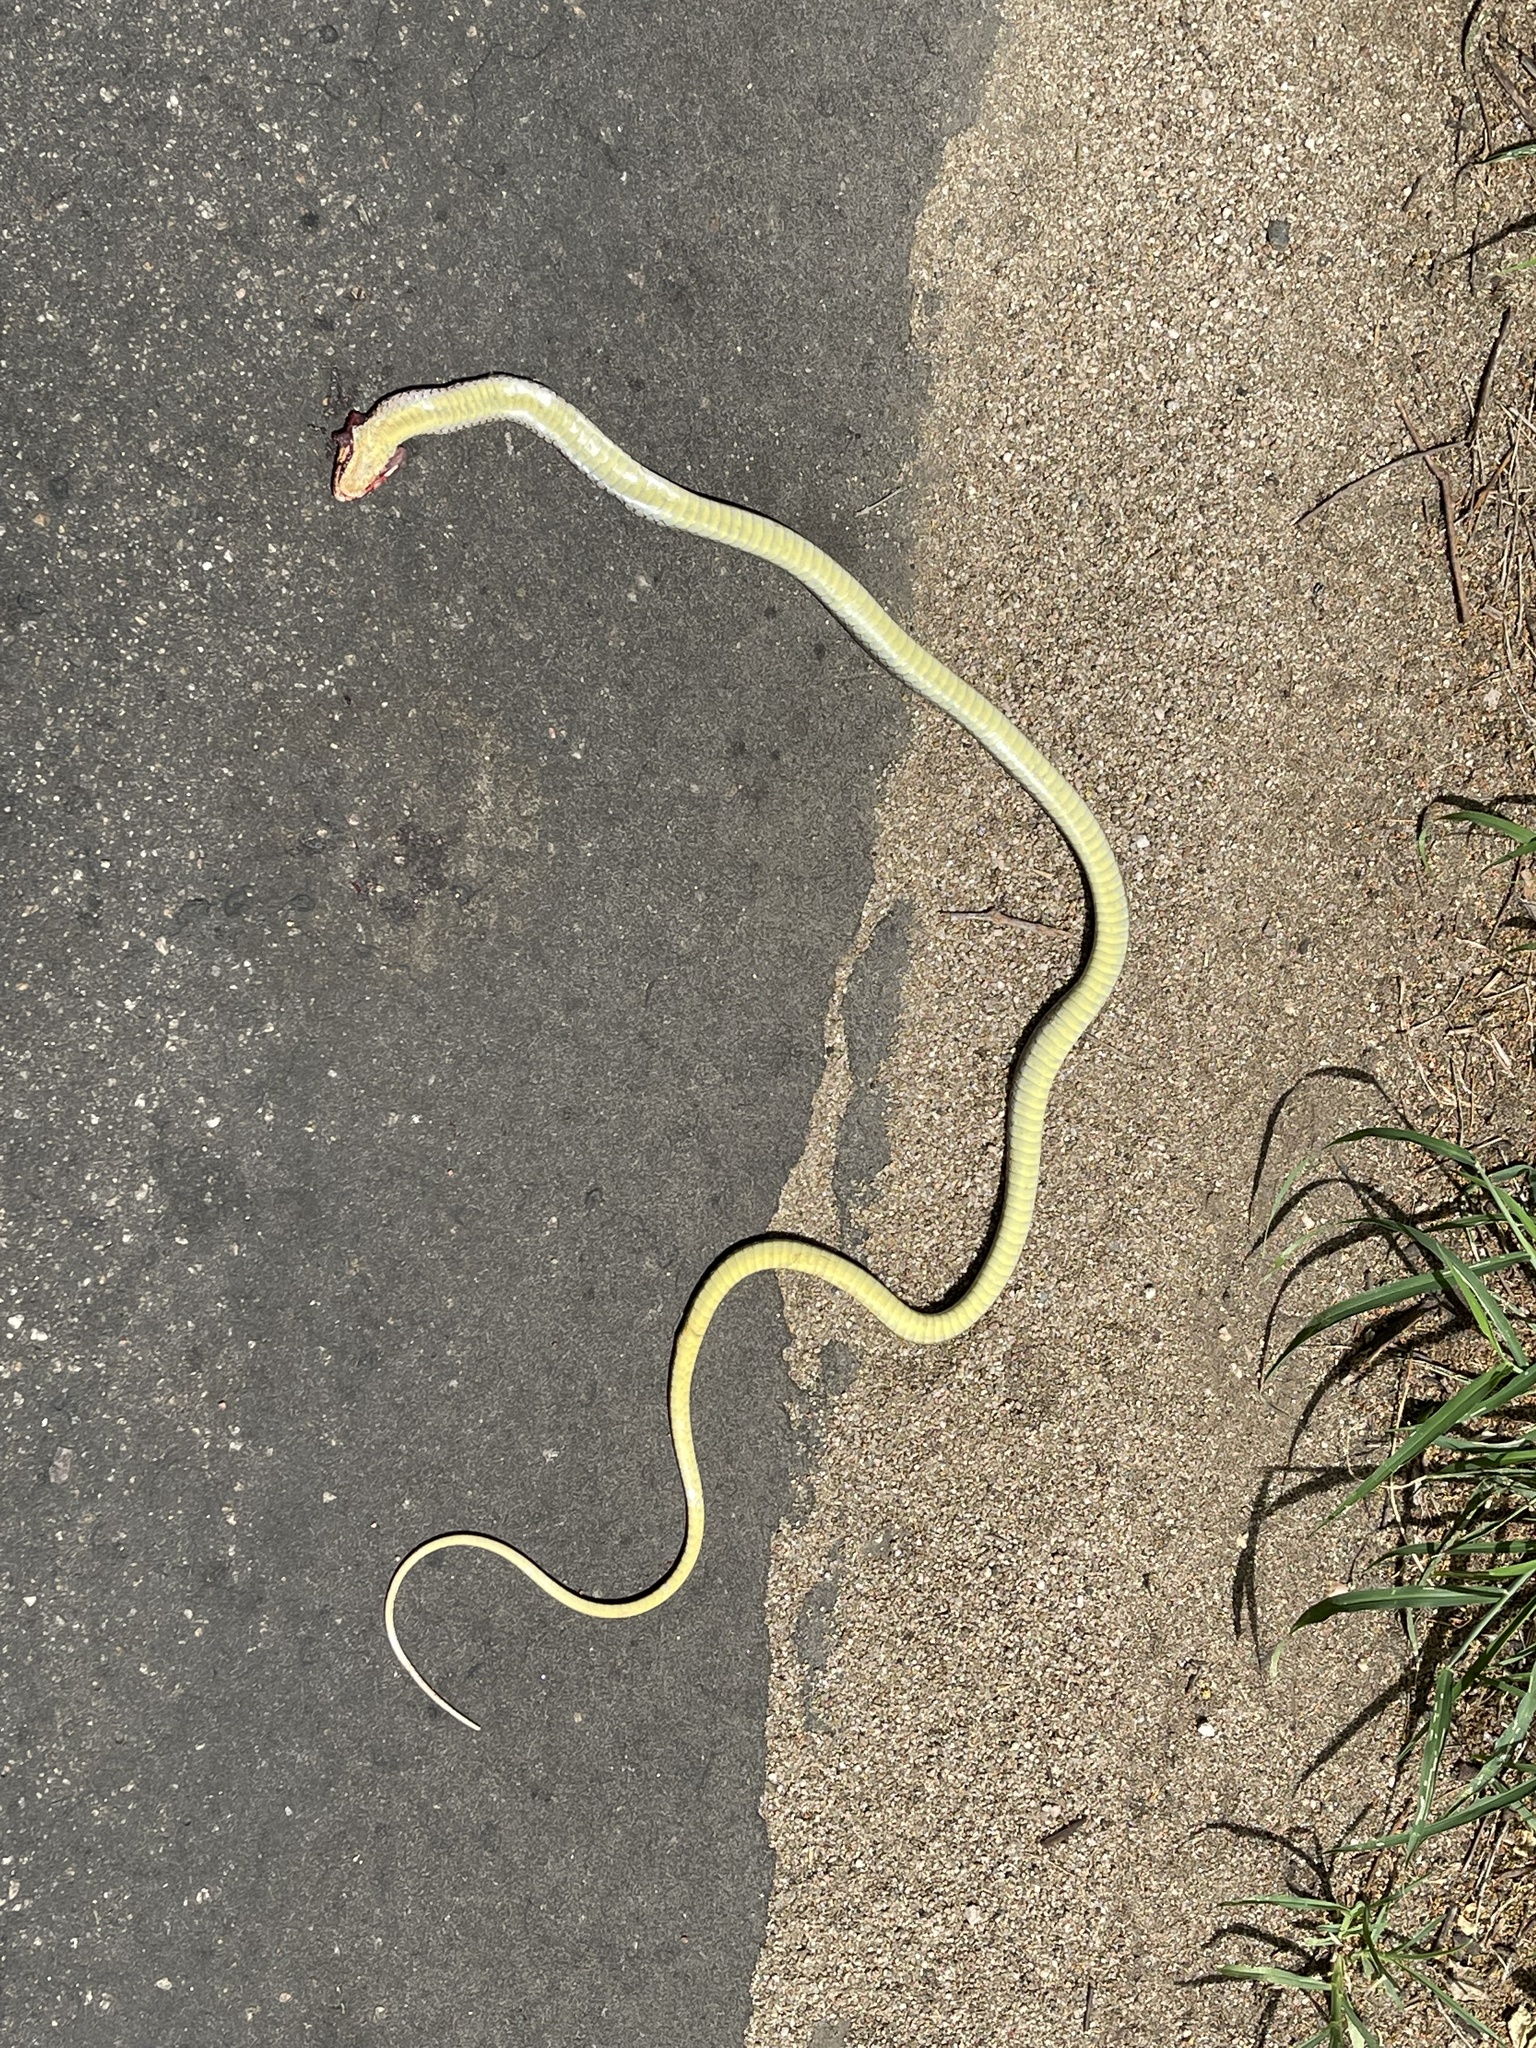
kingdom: Animalia
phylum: Chordata
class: Squamata
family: Psammophiidae
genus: Psammophis
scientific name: Psammophis mossambicus
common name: Olive grass snake
